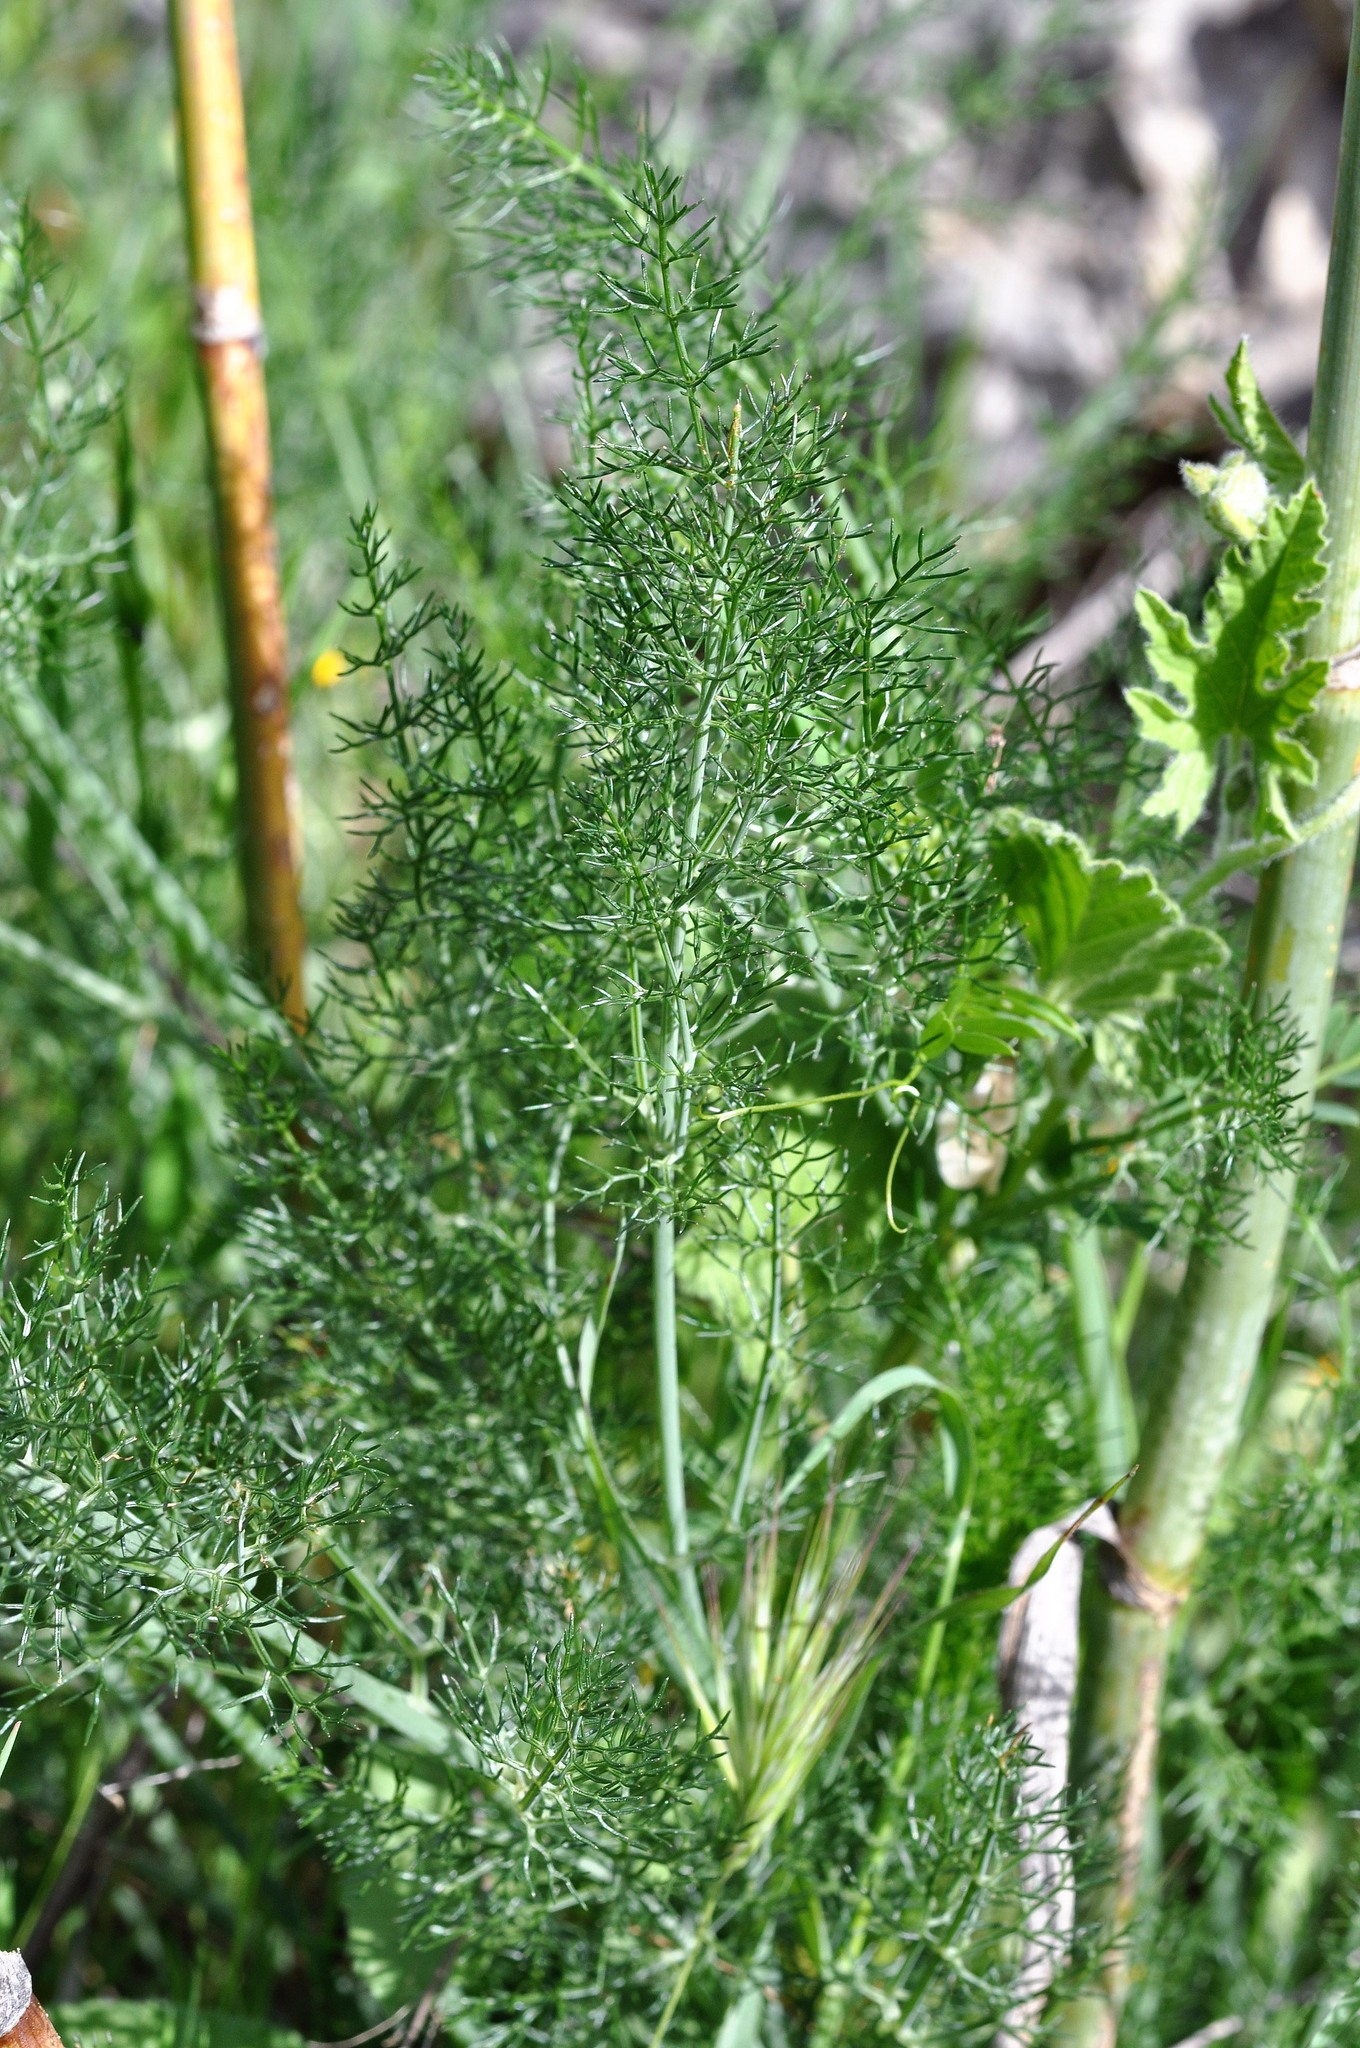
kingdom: Plantae
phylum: Tracheophyta
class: Magnoliopsida
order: Apiales
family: Apiaceae
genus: Foeniculum
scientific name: Foeniculum vulgare
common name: Fennel
